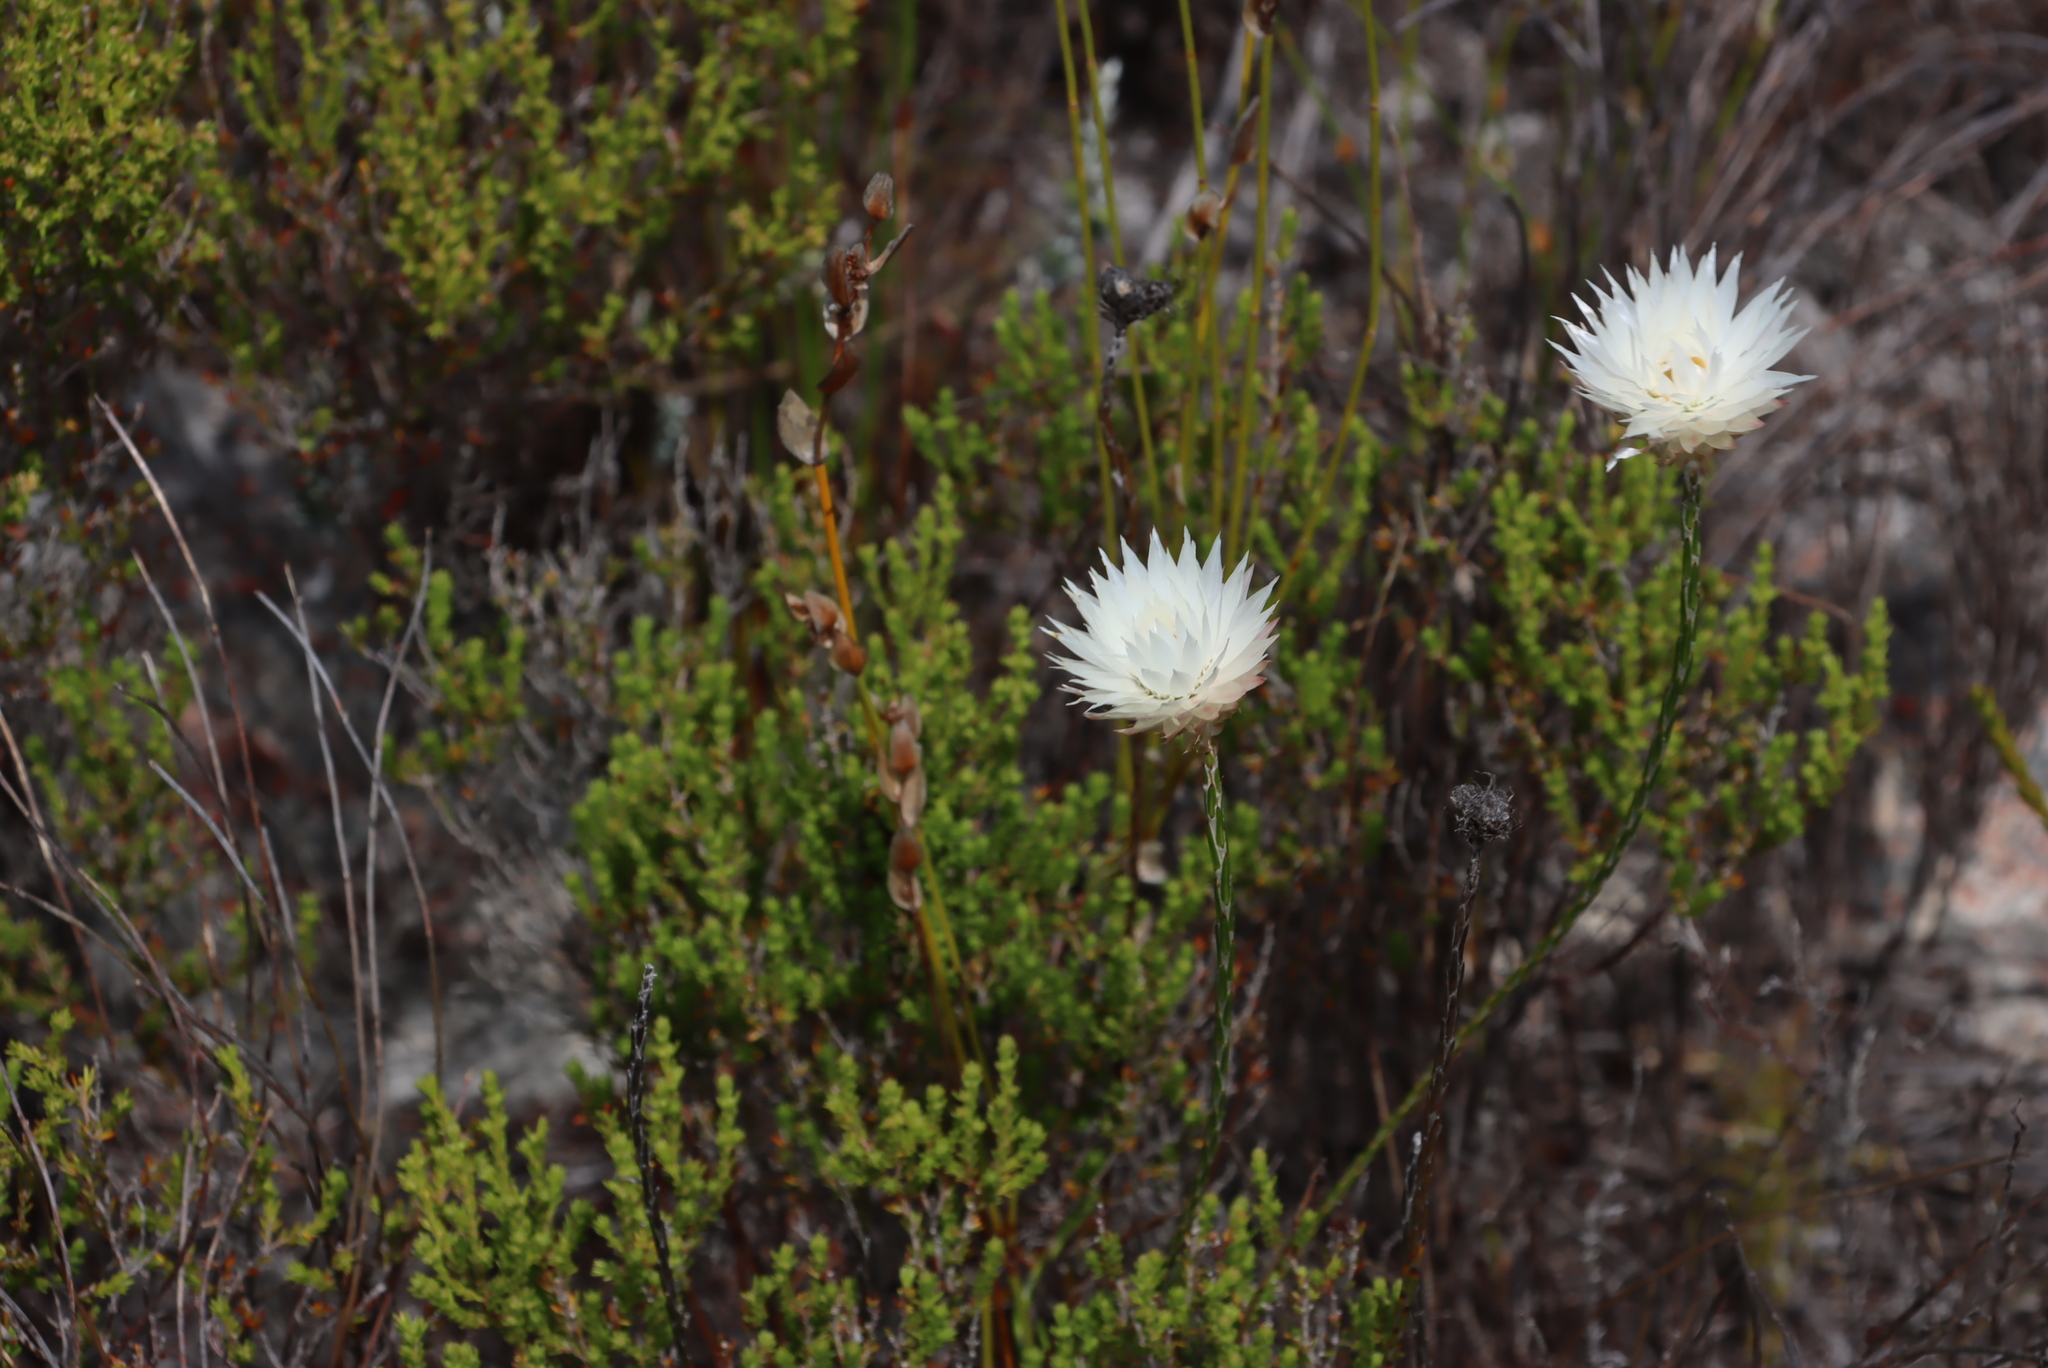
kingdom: Plantae
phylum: Tracheophyta
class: Magnoliopsida
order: Asterales
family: Asteraceae
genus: Edmondia
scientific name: Edmondia sesamoides
